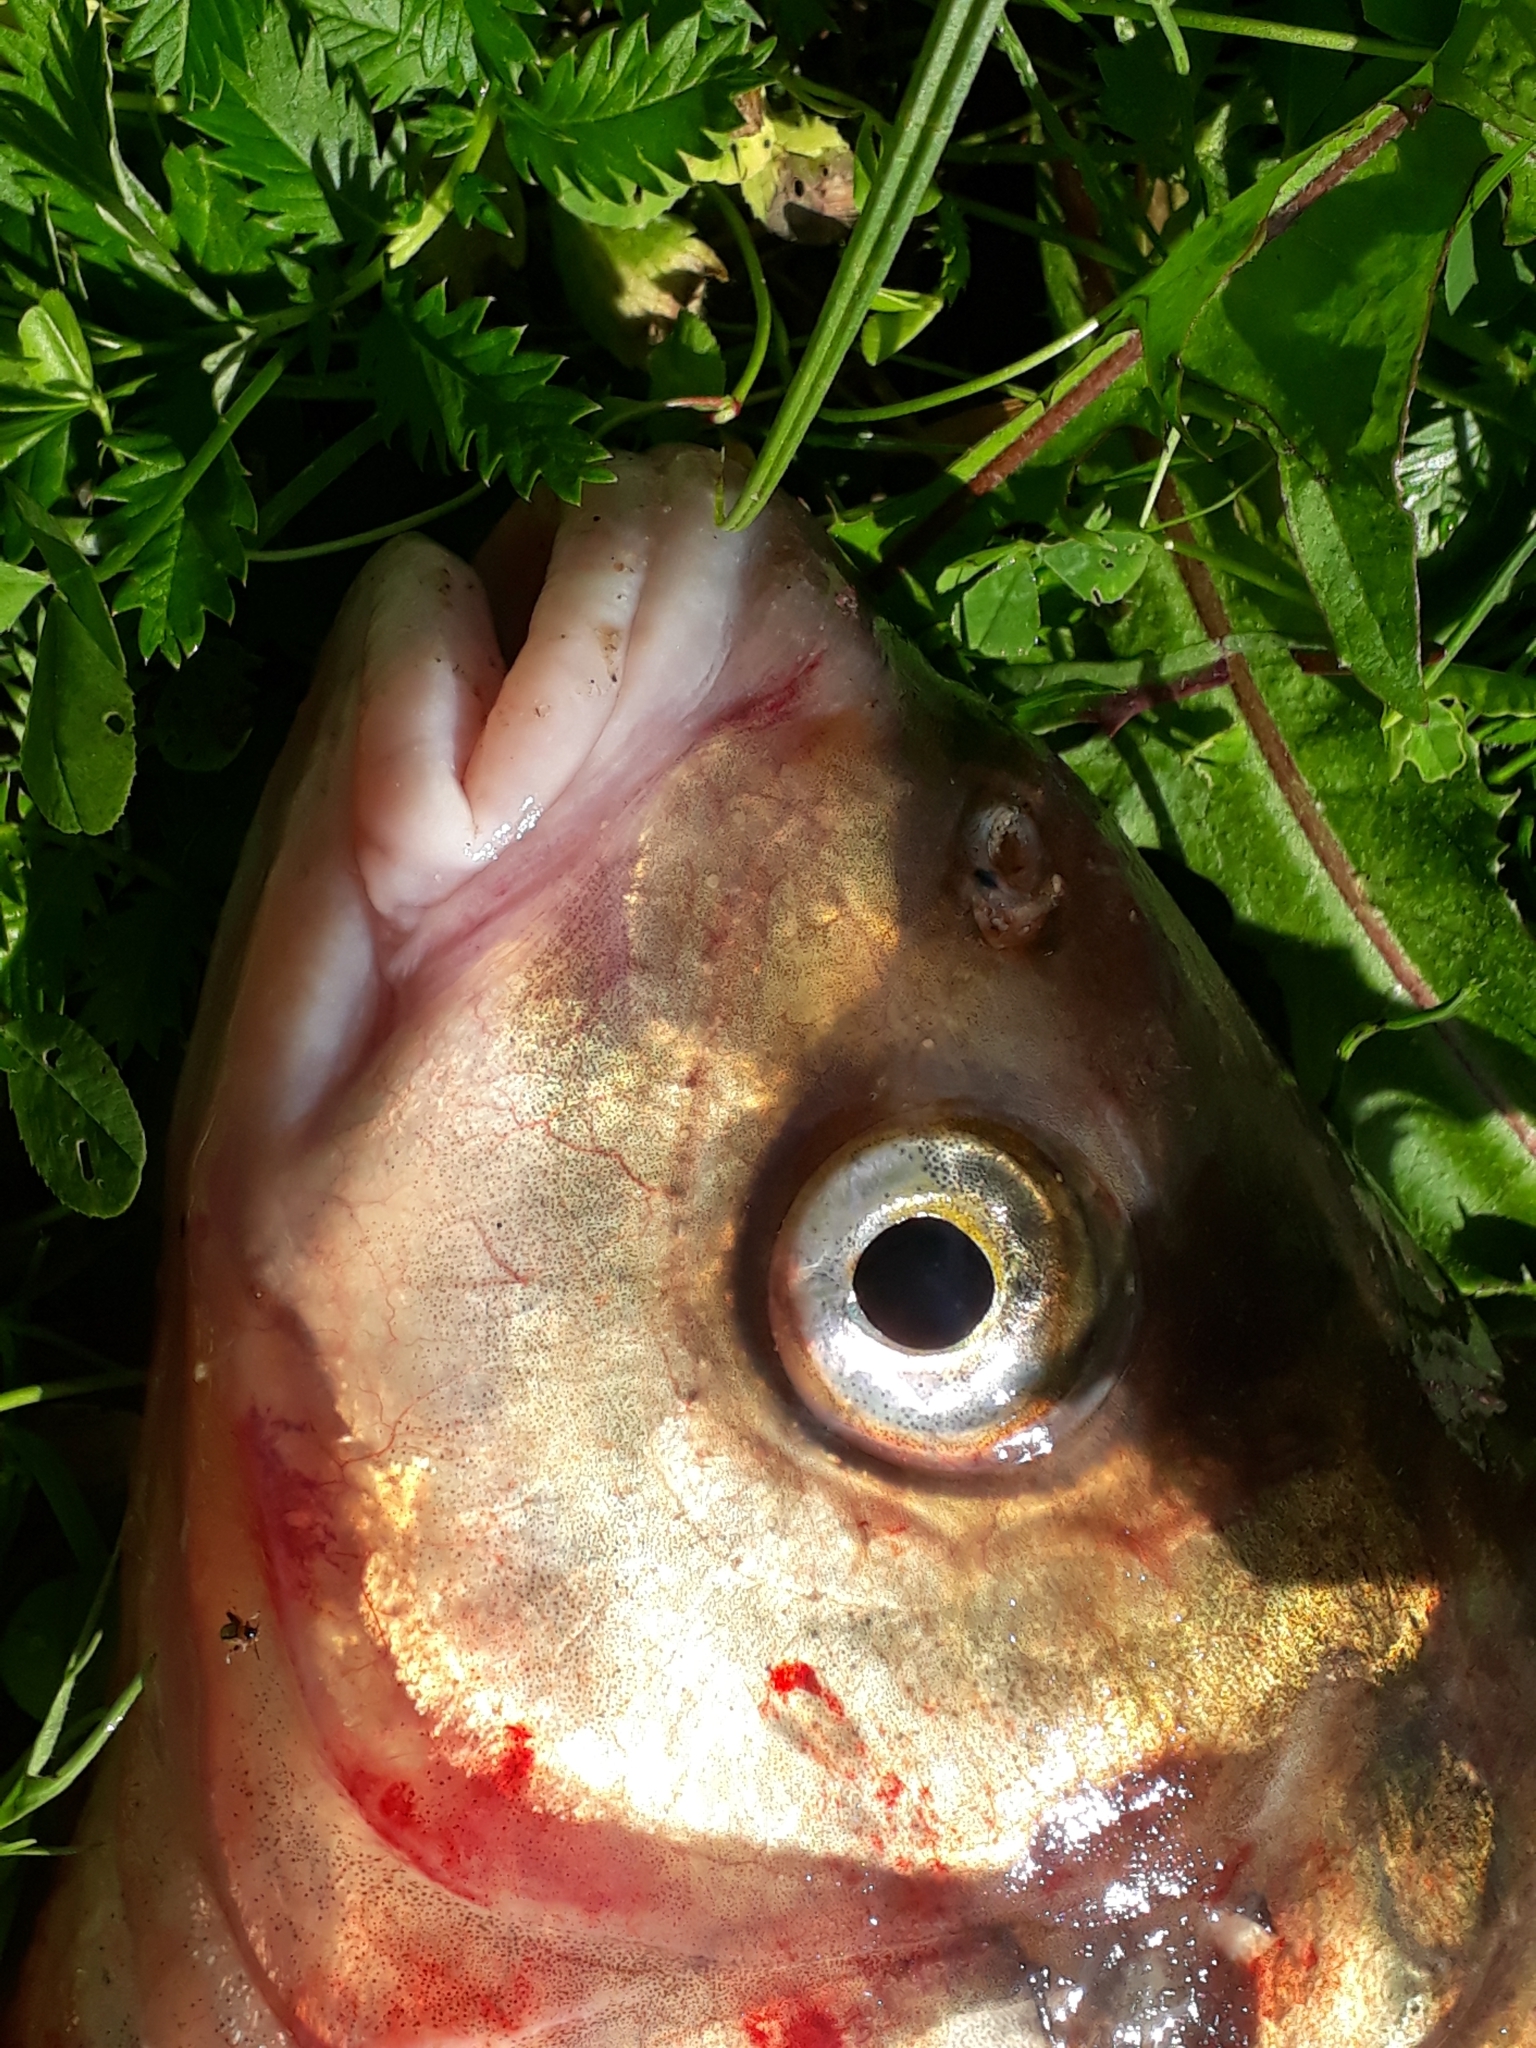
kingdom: Animalia
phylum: Chordata
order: Cypriniformes
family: Cyprinidae
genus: Abramis
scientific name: Abramis brama
